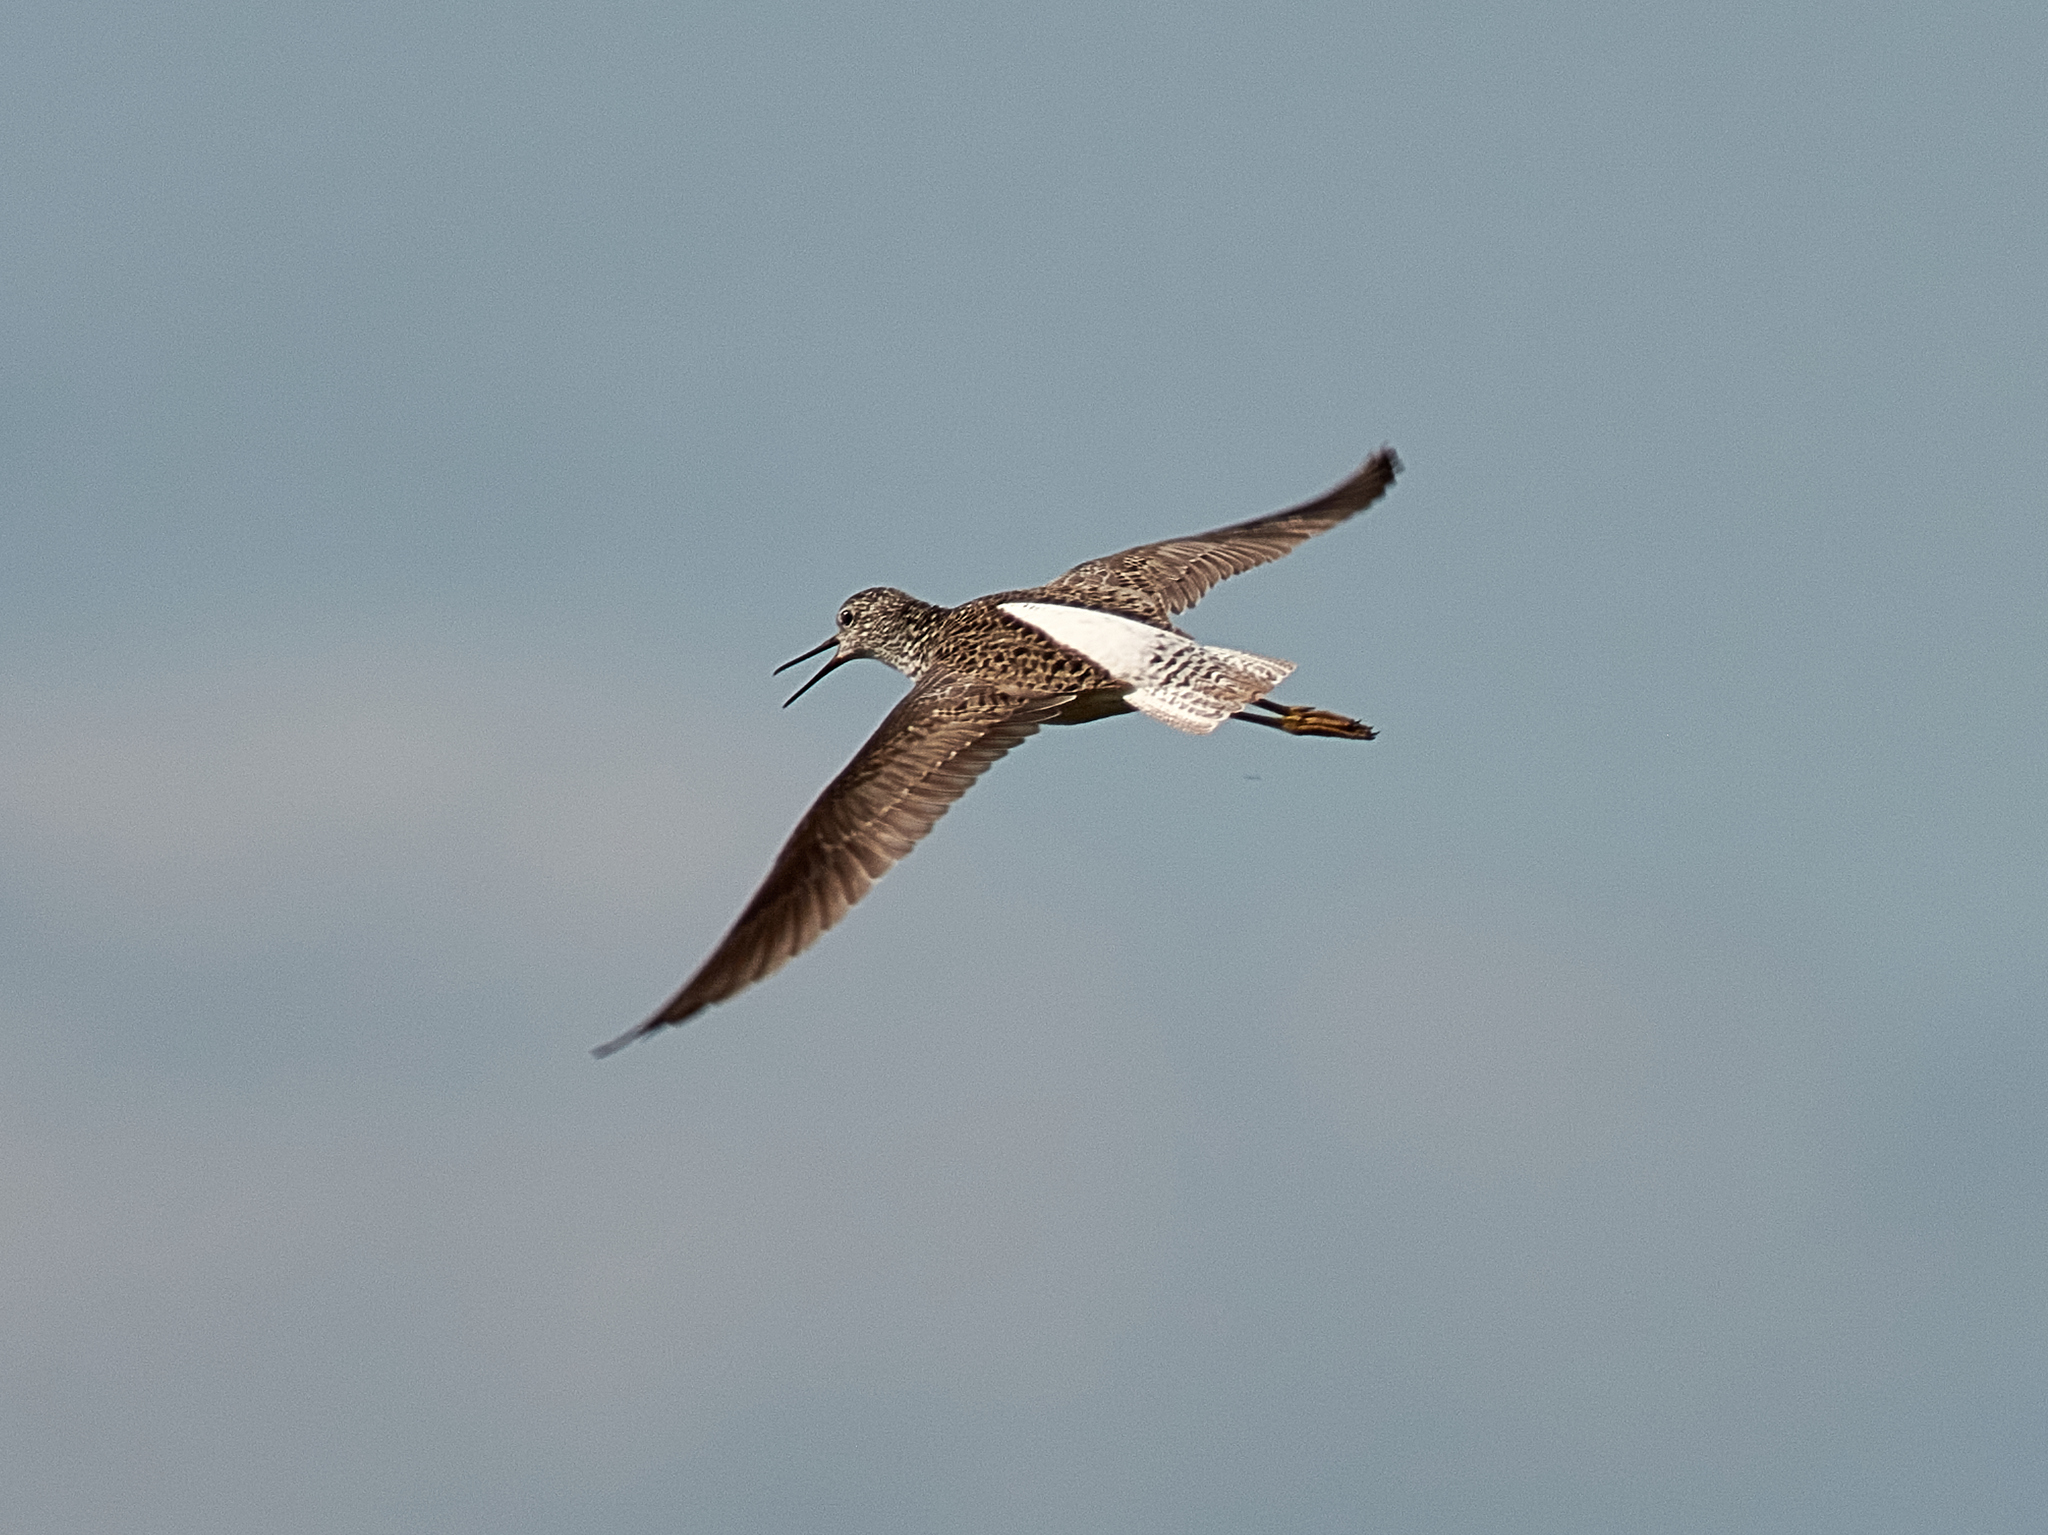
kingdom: Animalia
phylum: Chordata
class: Aves
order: Charadriiformes
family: Scolopacidae
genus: Tringa
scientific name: Tringa stagnatilis
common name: Marsh sandpiper
